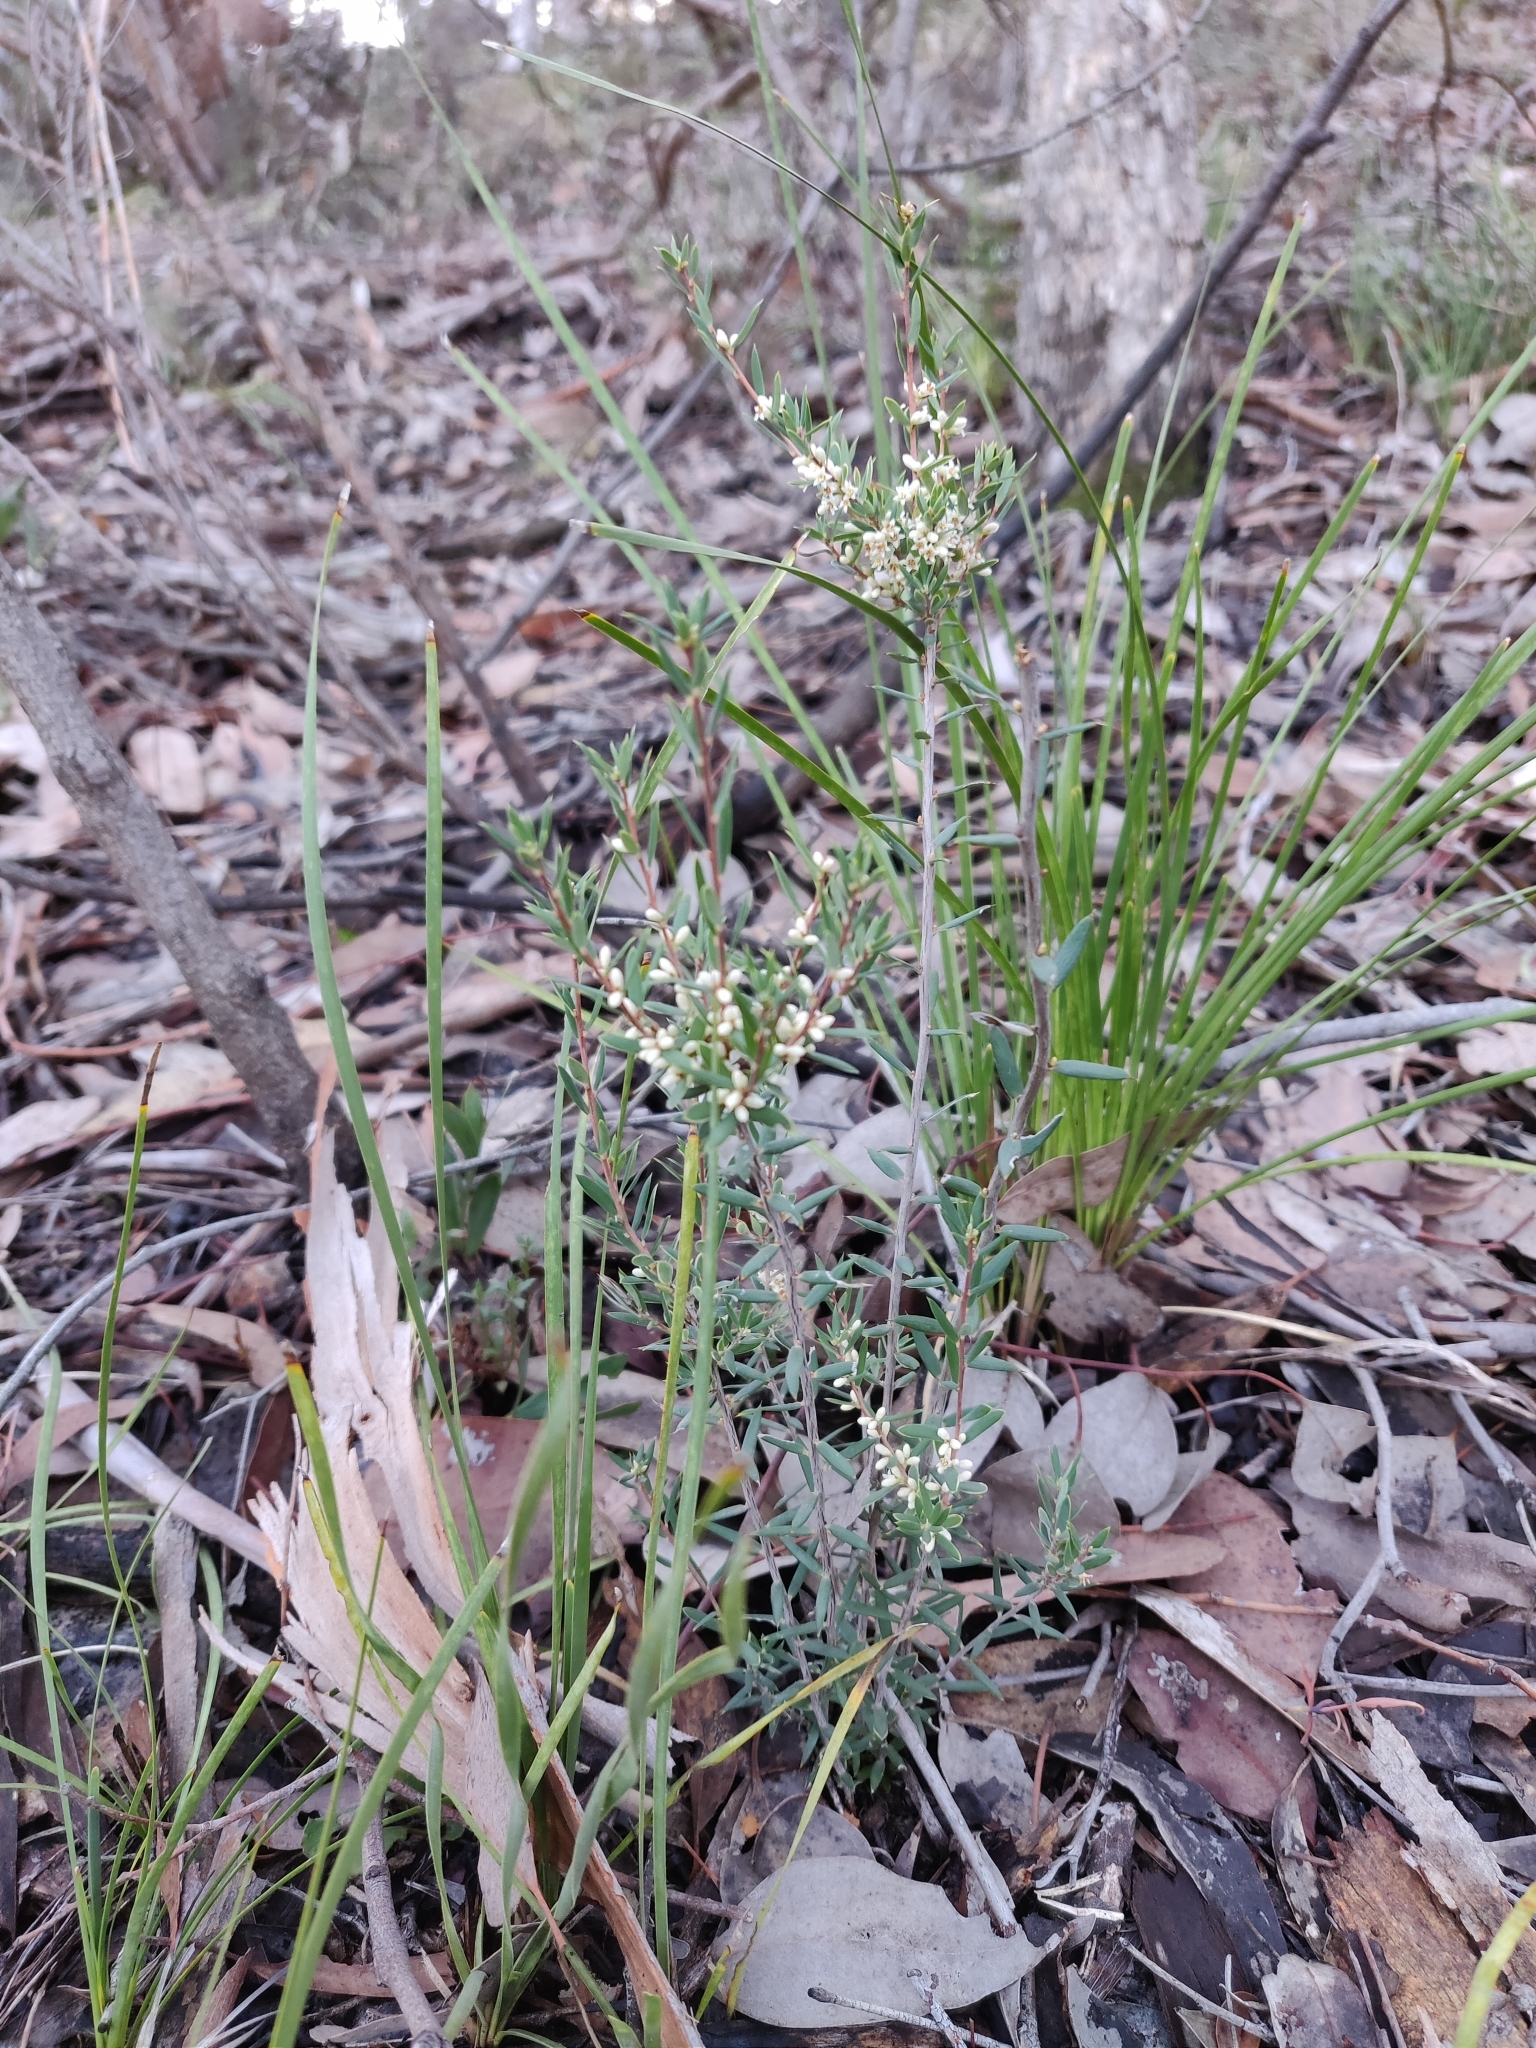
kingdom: Plantae
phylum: Tracheophyta
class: Magnoliopsida
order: Ericales
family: Ericaceae
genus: Monotoca
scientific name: Monotoca scoparia
